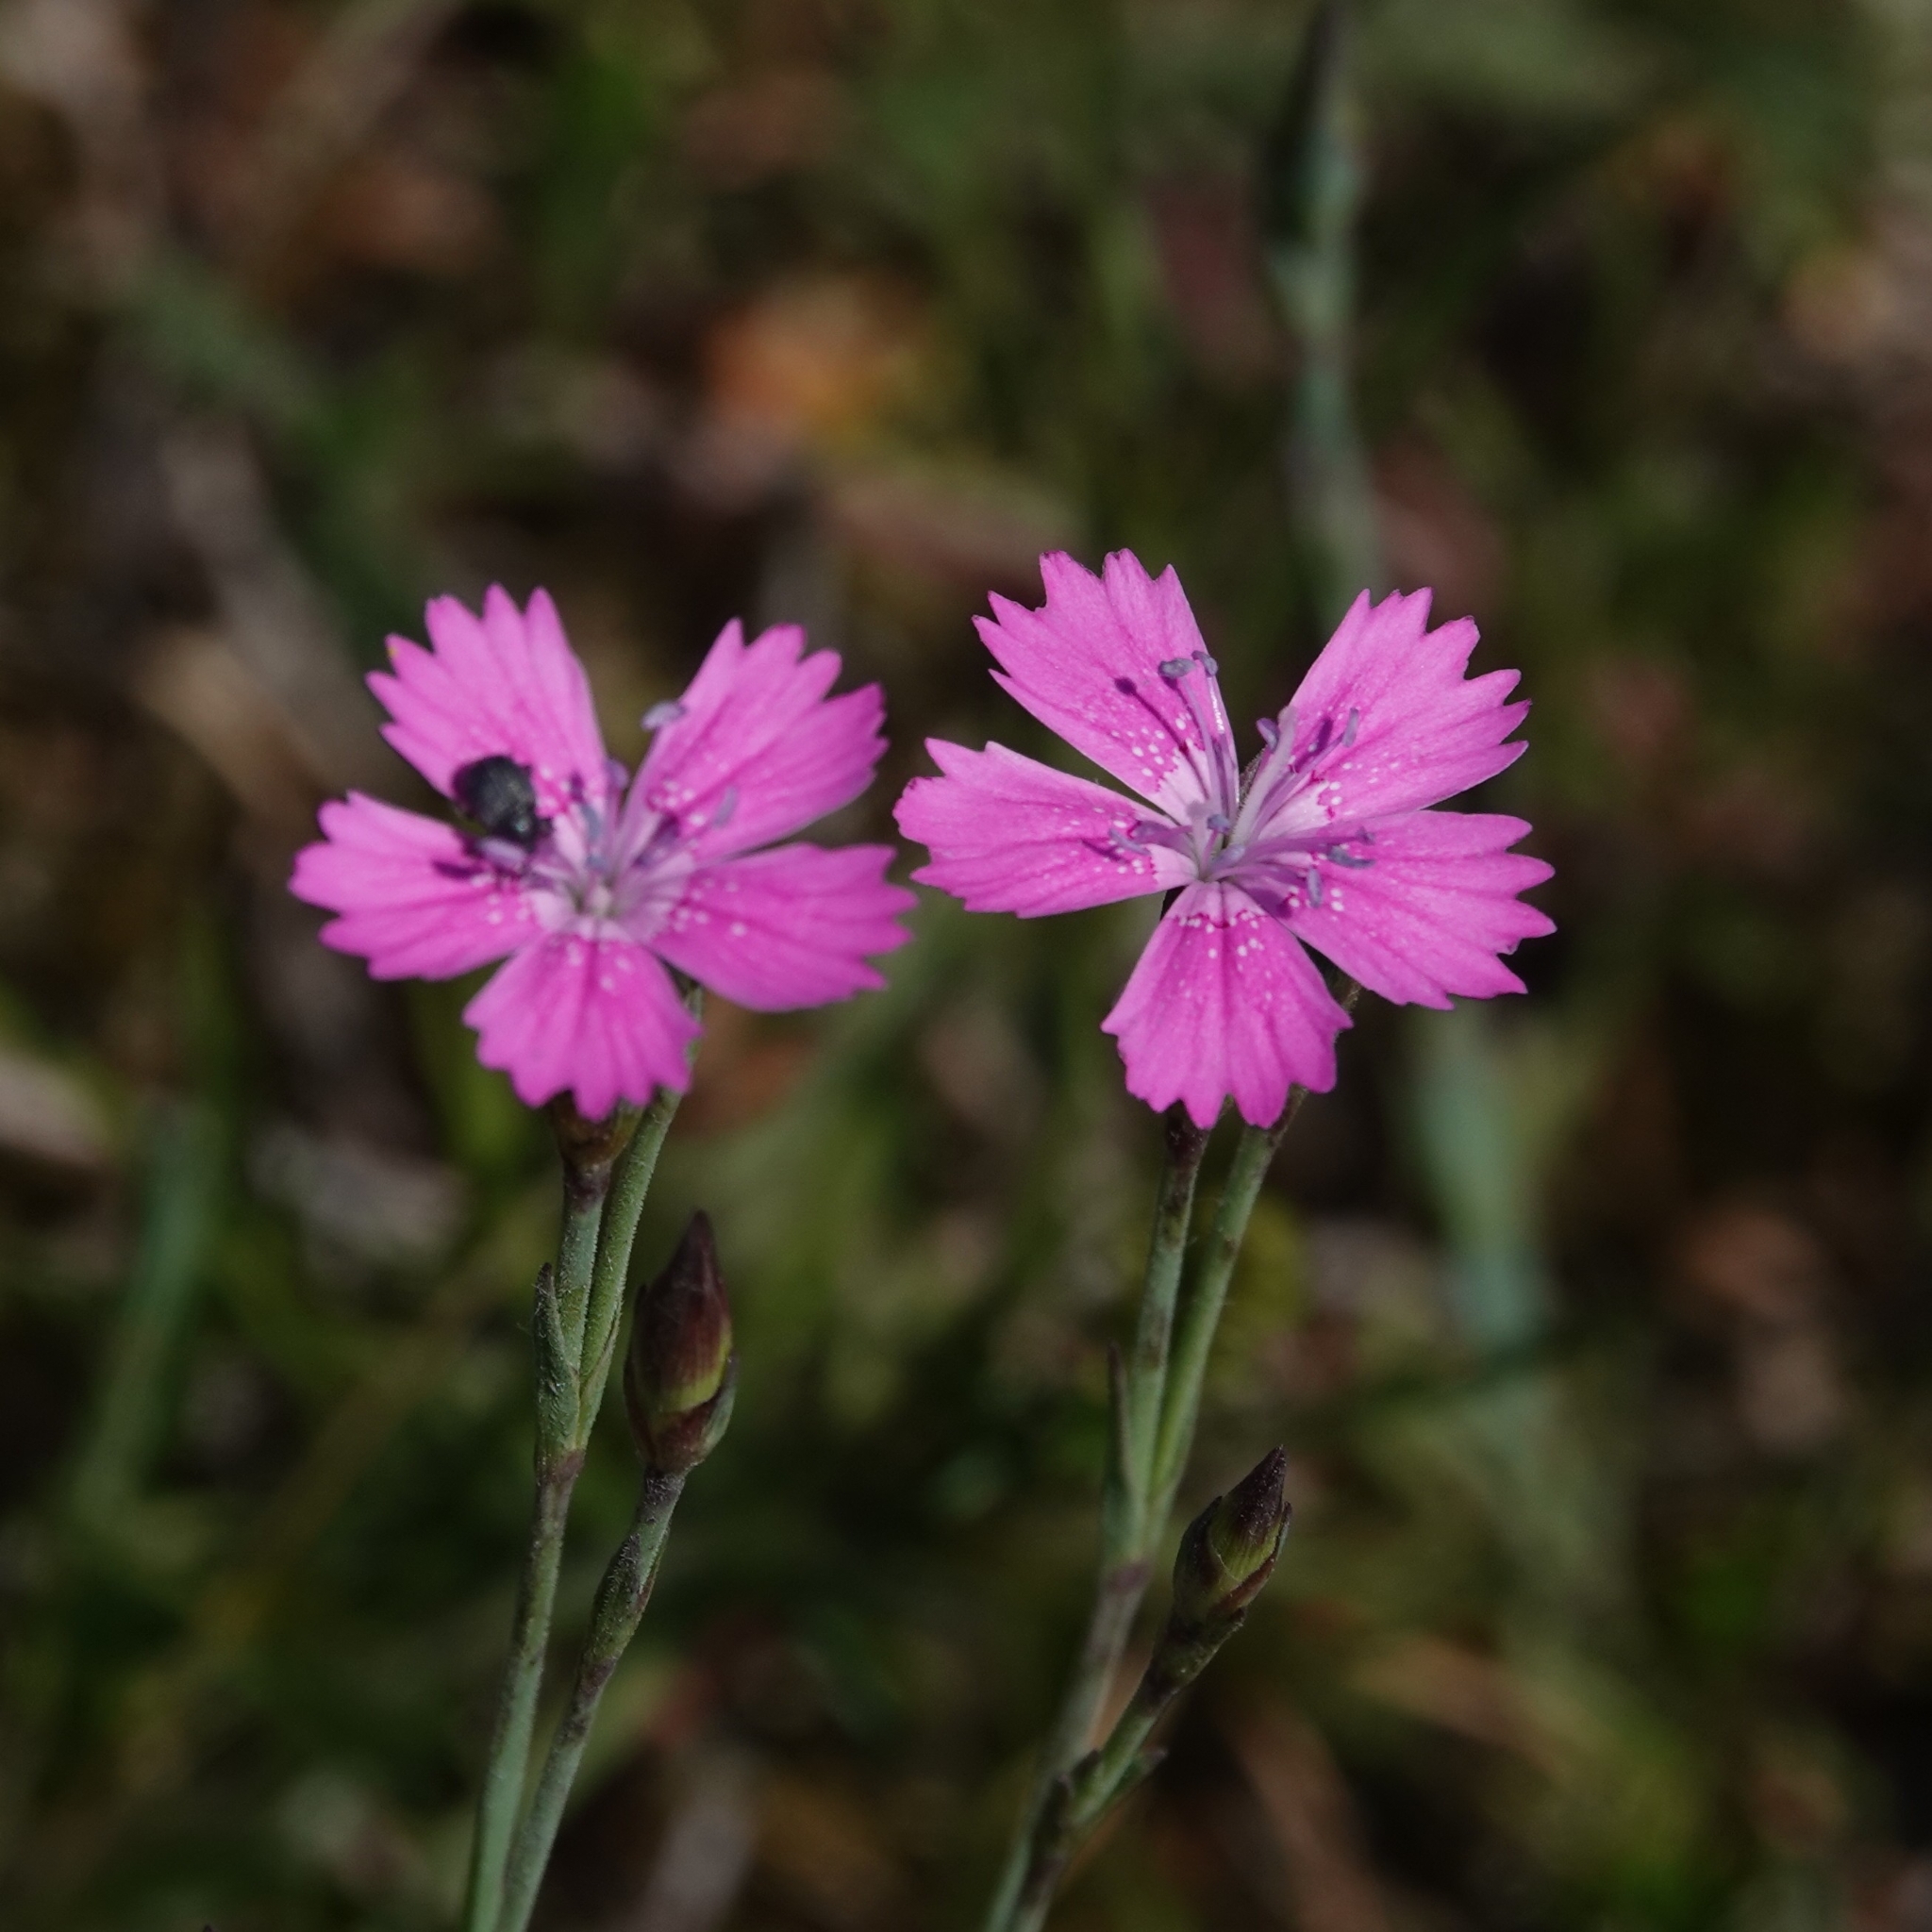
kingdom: Plantae
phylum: Tracheophyta
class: Magnoliopsida
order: Caryophyllales
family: Caryophyllaceae
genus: Dianthus
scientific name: Dianthus deltoides
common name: Maiden pink
